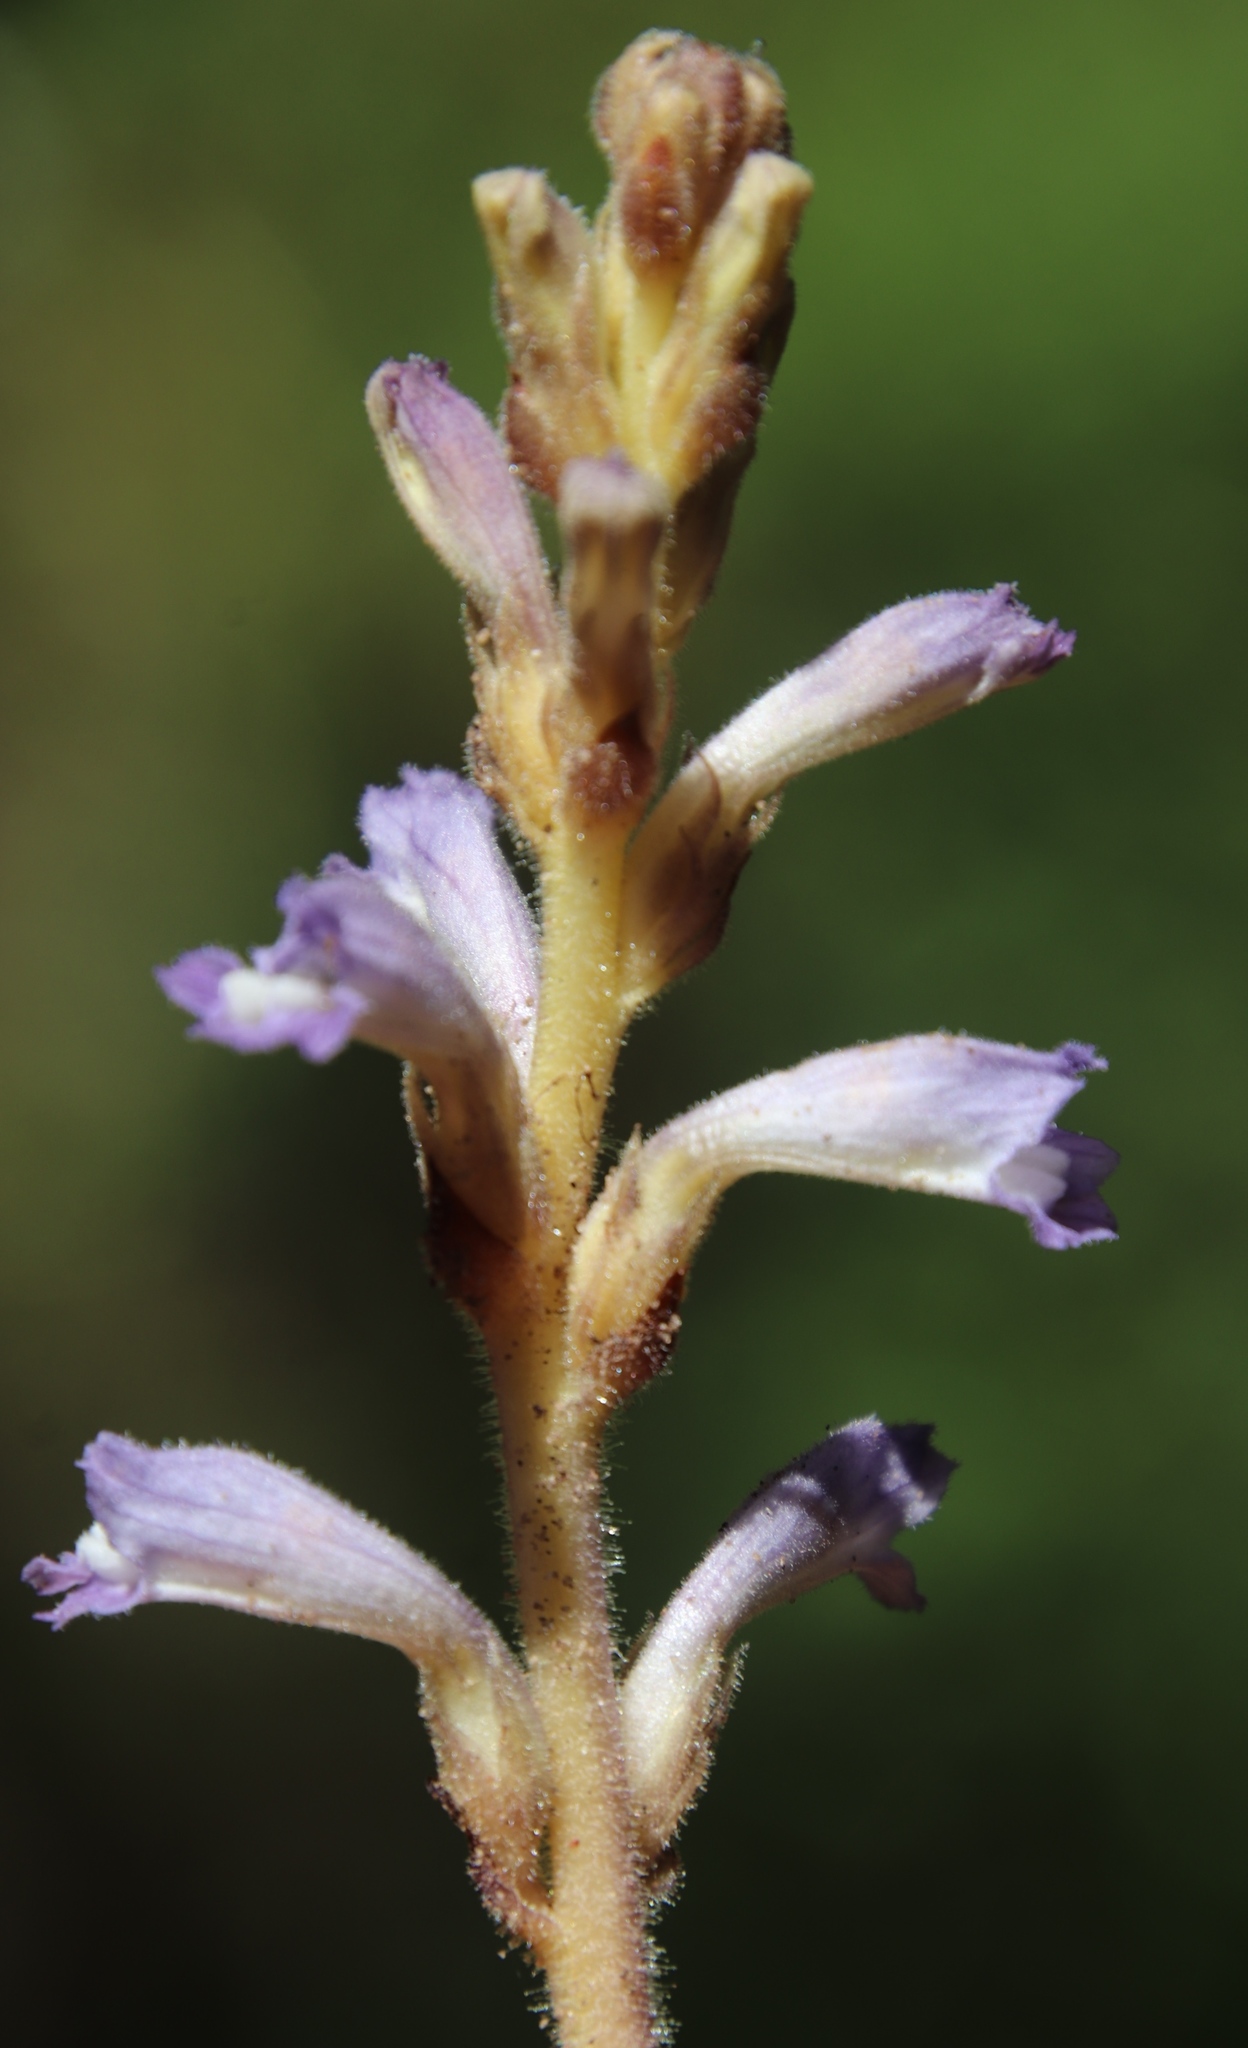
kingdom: Plantae
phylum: Tracheophyta
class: Magnoliopsida
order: Lamiales
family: Orobanchaceae
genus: Phelipanche
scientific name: Phelipanche mutelii
